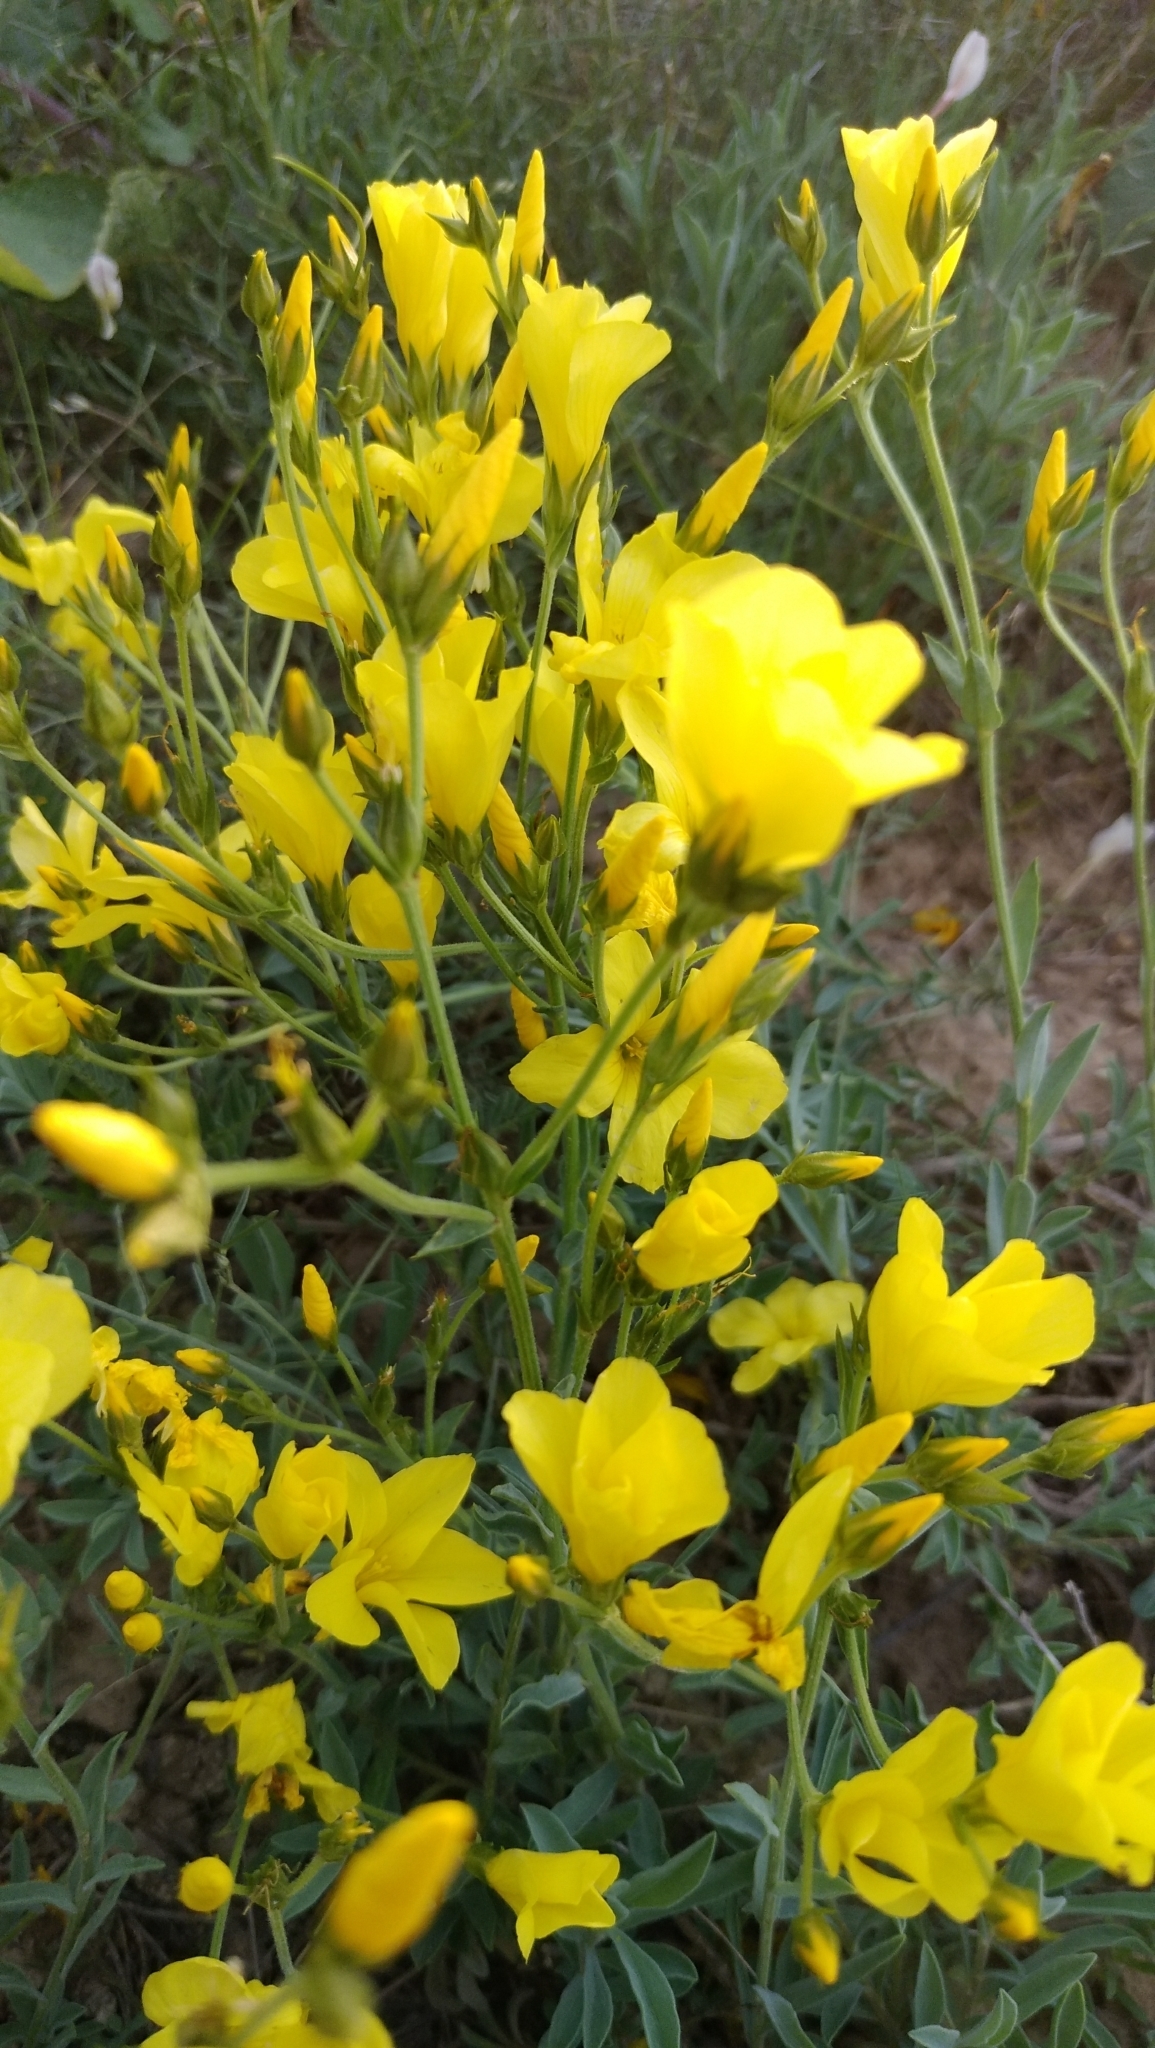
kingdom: Plantae
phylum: Tracheophyta
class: Magnoliopsida
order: Malpighiales
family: Linaceae
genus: Linum
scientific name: Linum pallasianum
